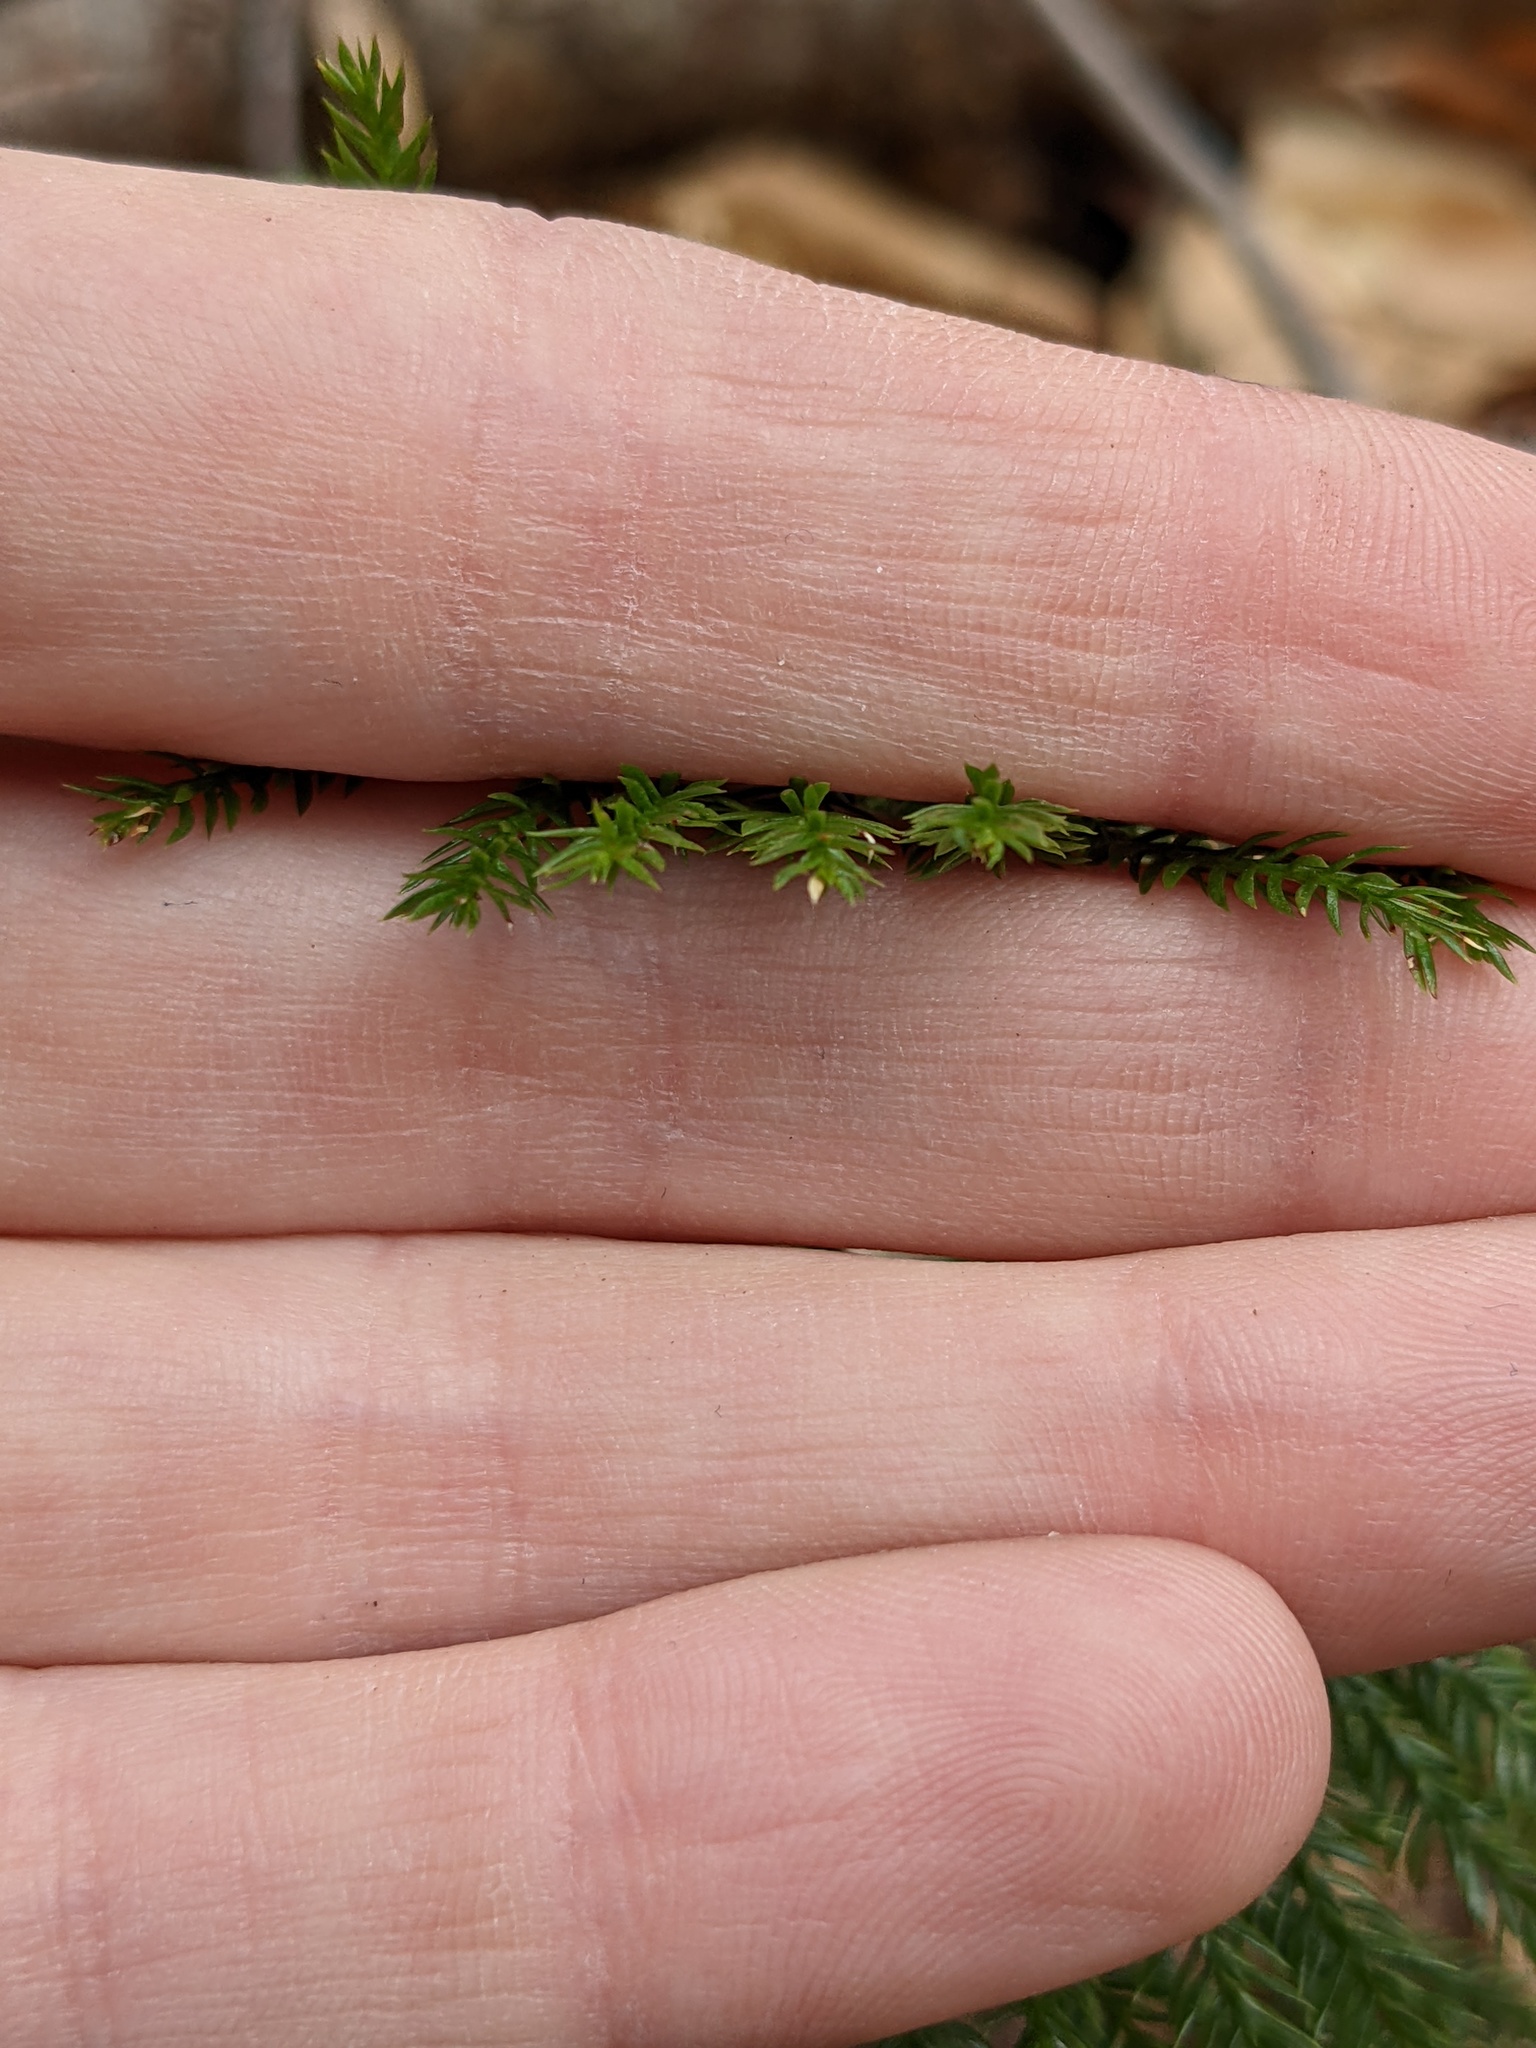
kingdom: Plantae
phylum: Tracheophyta
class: Lycopodiopsida
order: Lycopodiales
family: Lycopodiaceae
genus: Dendrolycopodium
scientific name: Dendrolycopodium obscurum
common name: Common ground-pine
